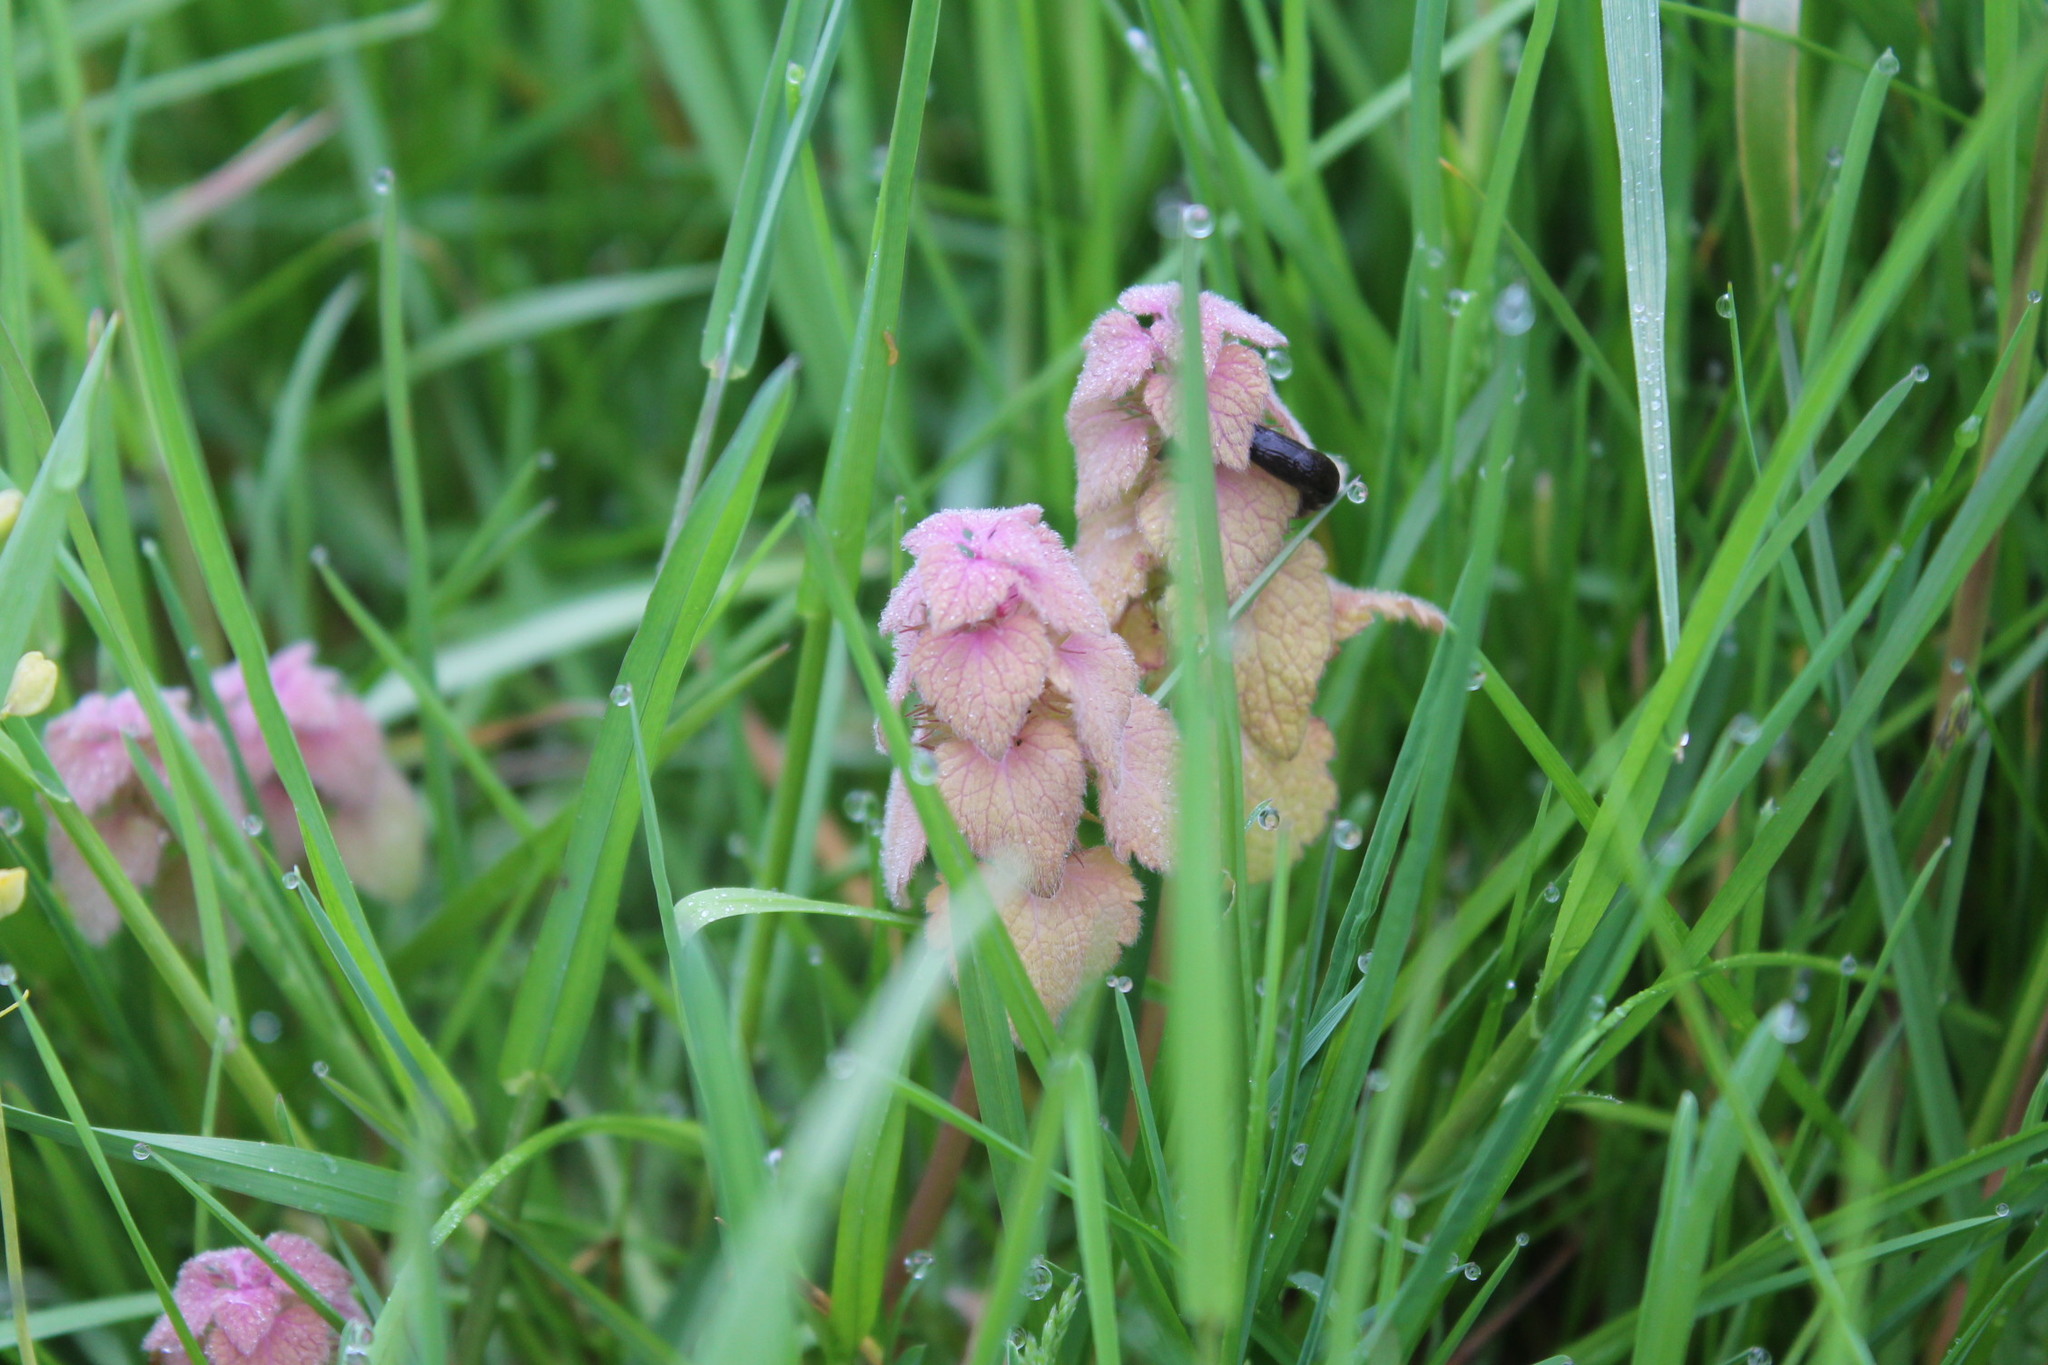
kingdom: Plantae
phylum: Tracheophyta
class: Magnoliopsida
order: Lamiales
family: Lamiaceae
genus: Lamium
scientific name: Lamium purpureum
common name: Red dead-nettle
